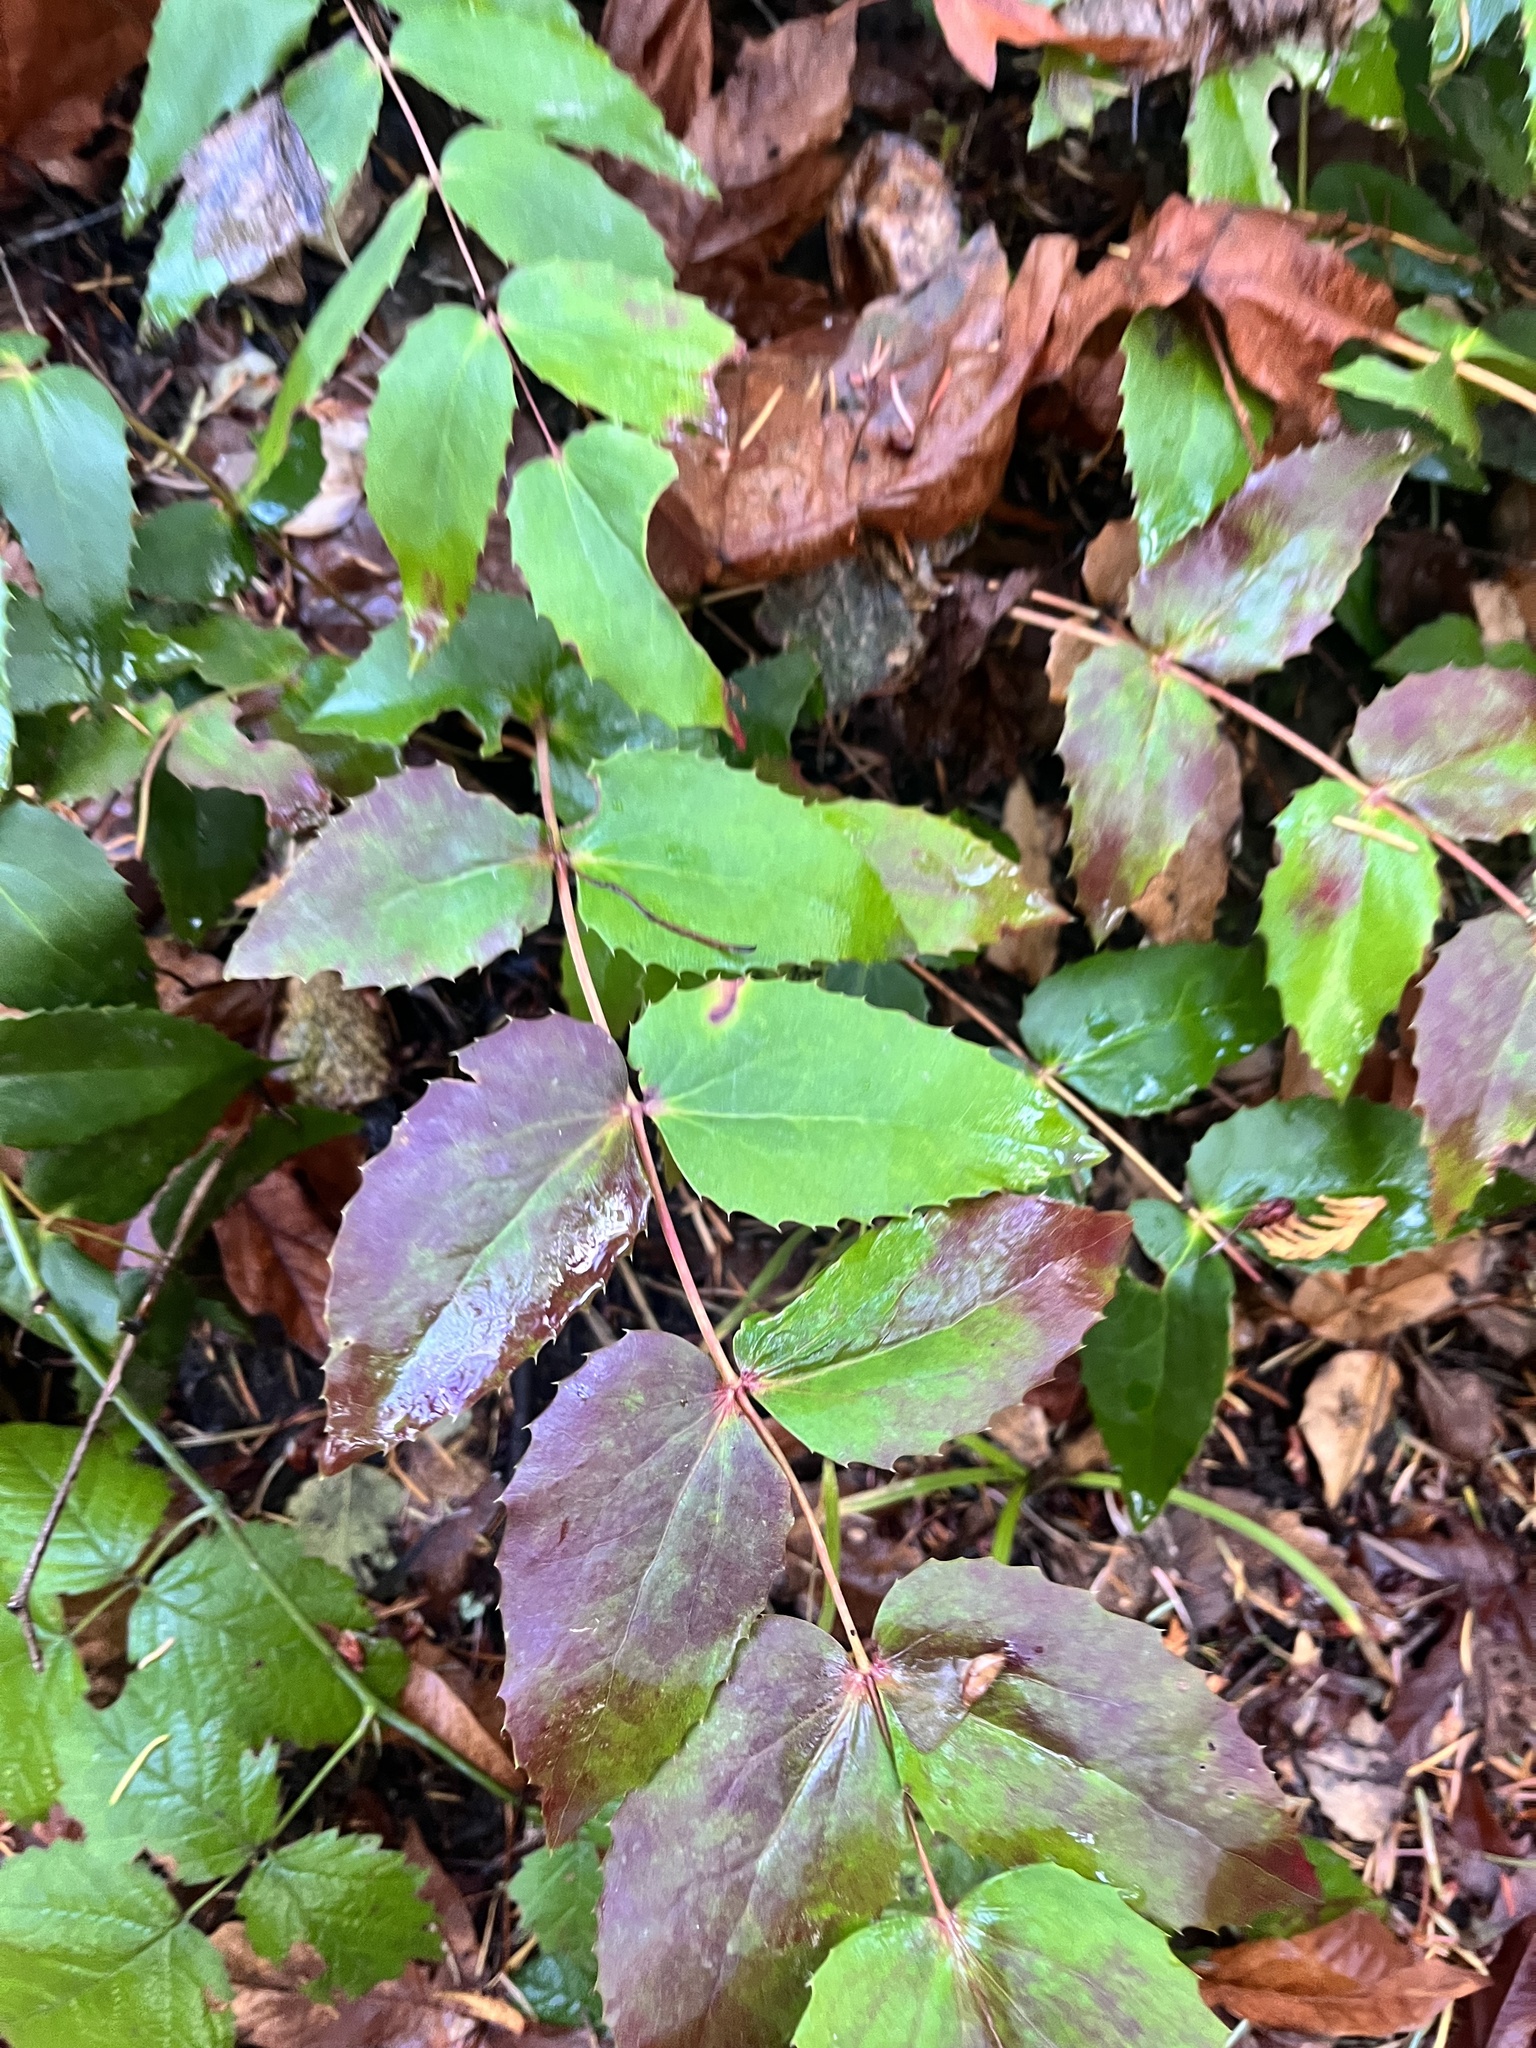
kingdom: Plantae
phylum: Tracheophyta
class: Magnoliopsida
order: Ranunculales
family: Berberidaceae
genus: Mahonia
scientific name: Mahonia nervosa
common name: Cascade oregon-grape
